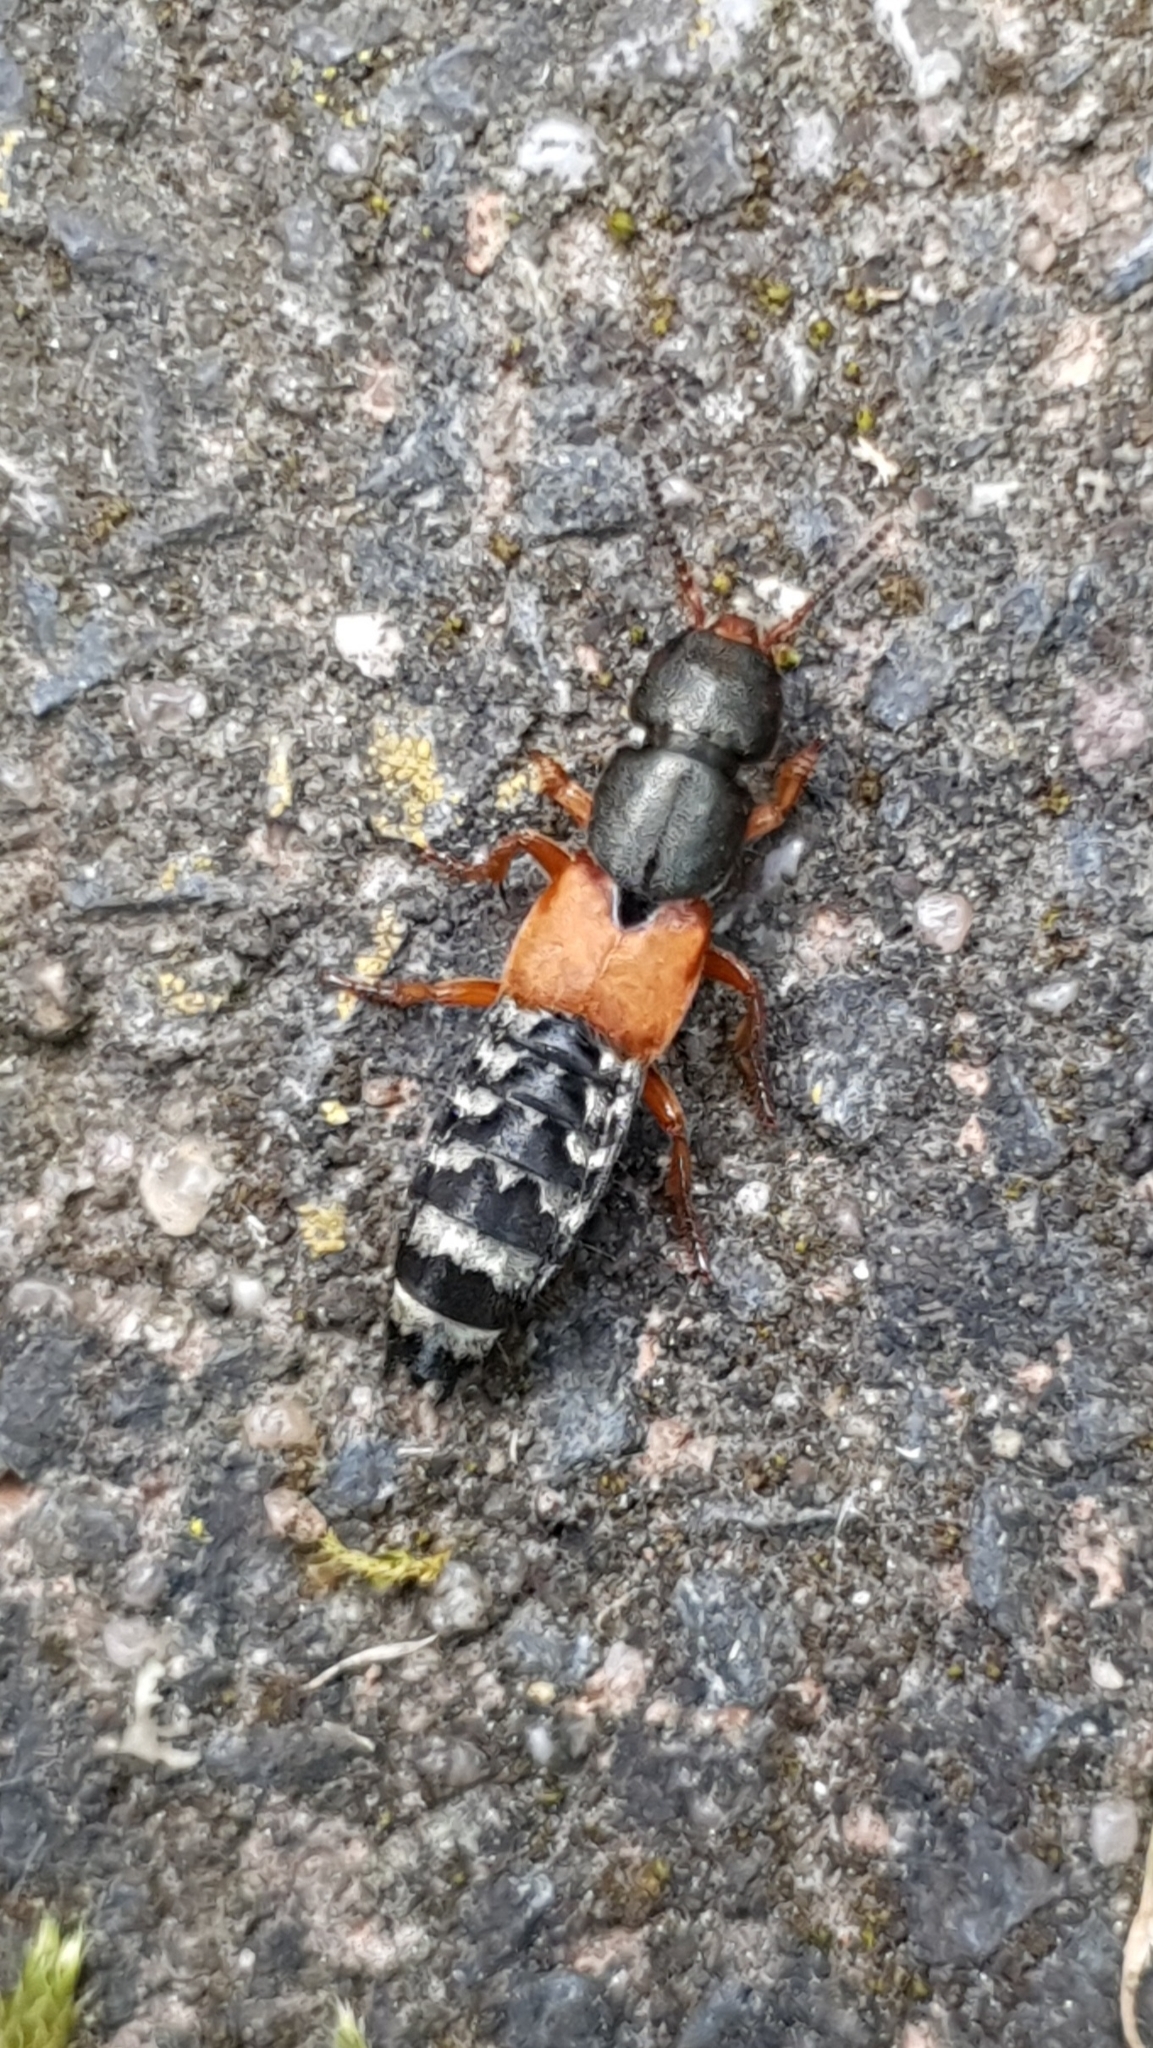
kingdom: Animalia
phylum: Arthropoda
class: Insecta
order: Coleoptera
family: Staphylinidae
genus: Platydracus
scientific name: Platydracus stercorarius
